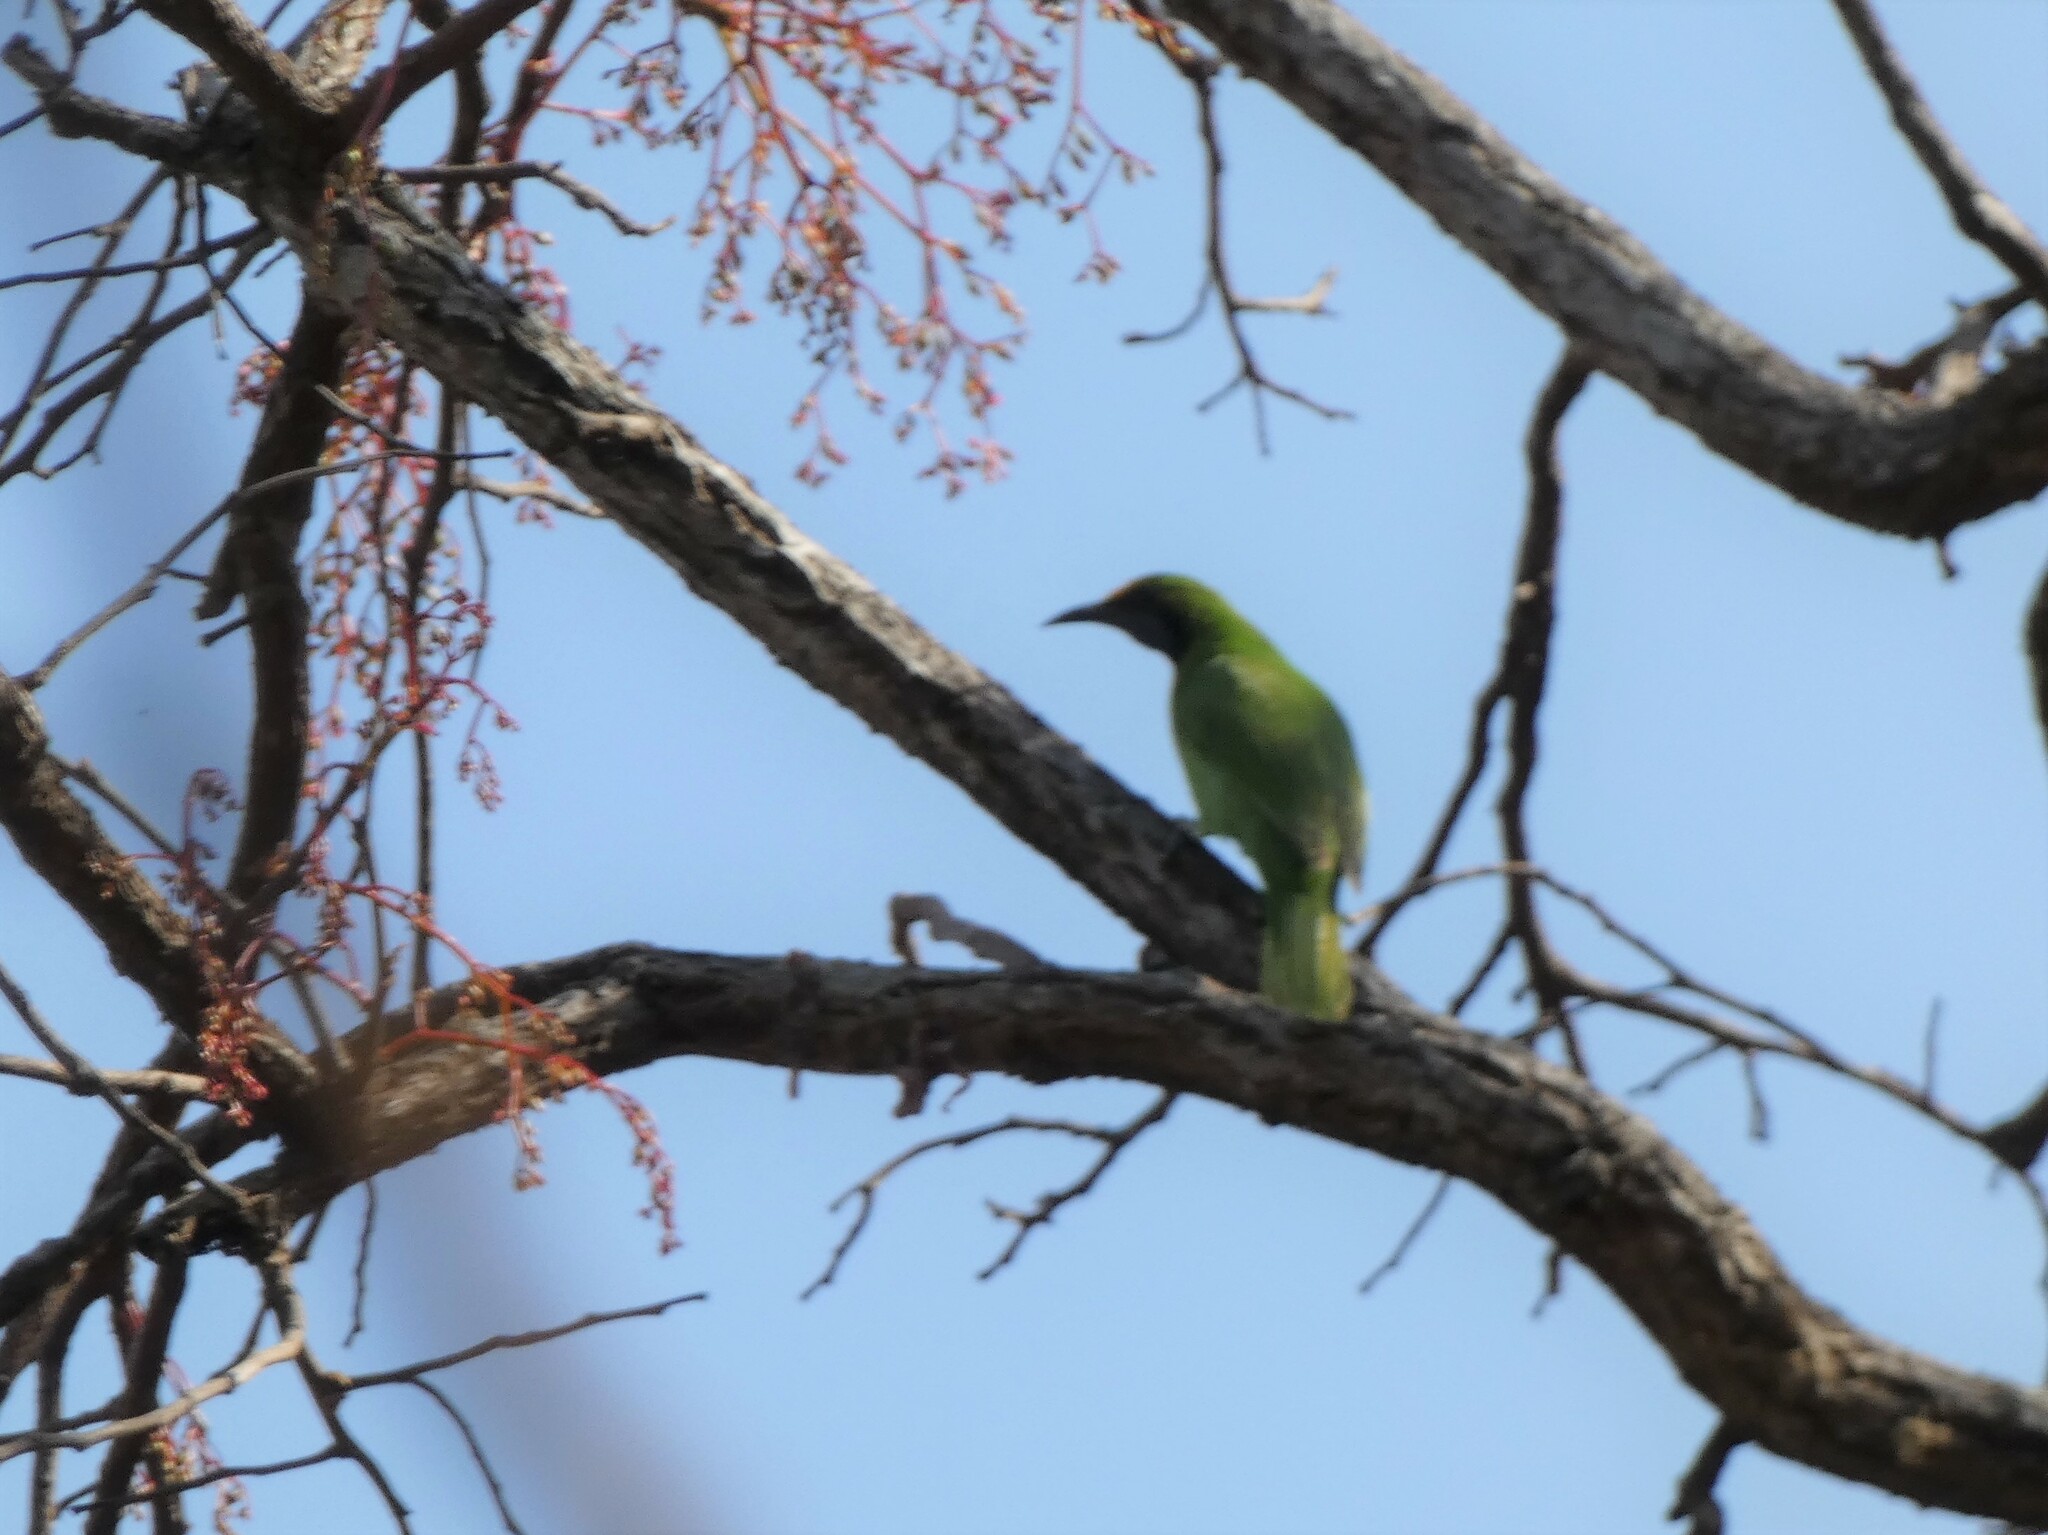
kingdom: Animalia
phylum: Chordata
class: Aves
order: Passeriformes
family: Chloropseidae
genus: Chloropsis
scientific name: Chloropsis aurifrons
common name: Golden-fronted leafbird
